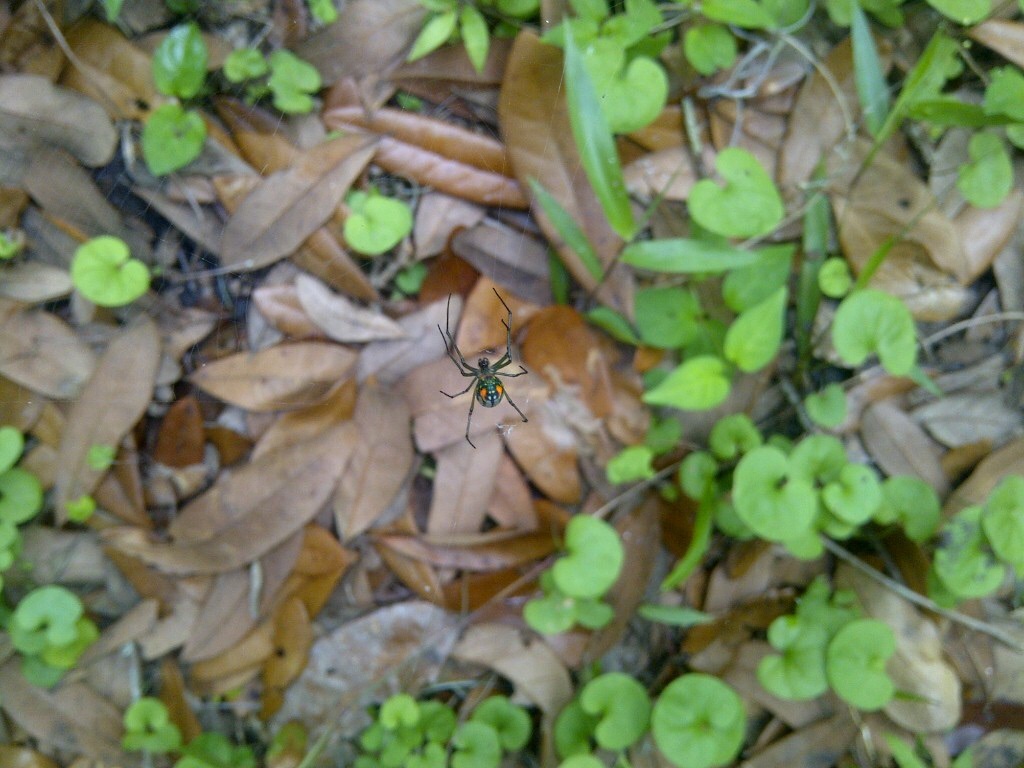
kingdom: Animalia
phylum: Arthropoda
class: Arachnida
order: Araneae
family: Tetragnathidae
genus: Leucauge
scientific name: Leucauge argyrobapta
